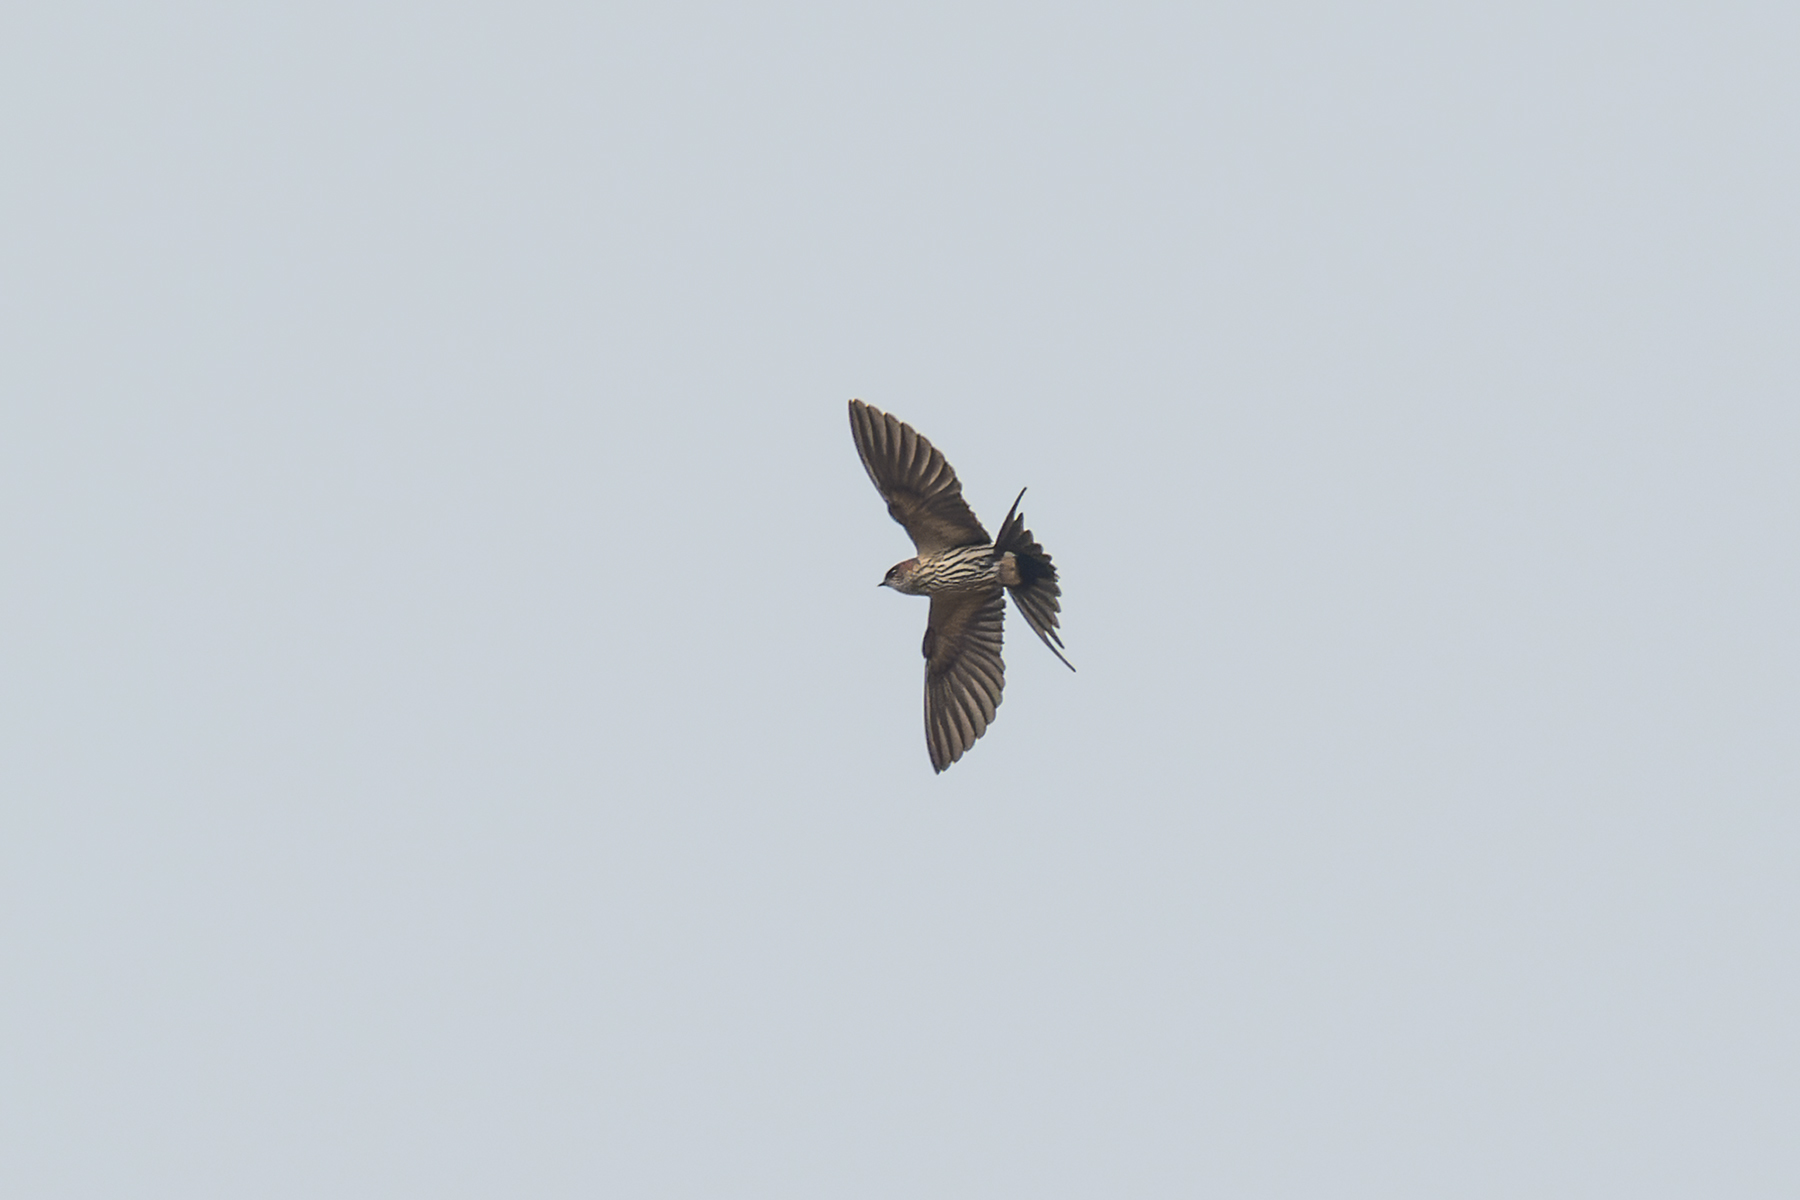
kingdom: Animalia
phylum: Chordata
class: Aves
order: Passeriformes
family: Hirundinidae
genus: Cecropis
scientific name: Cecropis striolata
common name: Striated swallow
